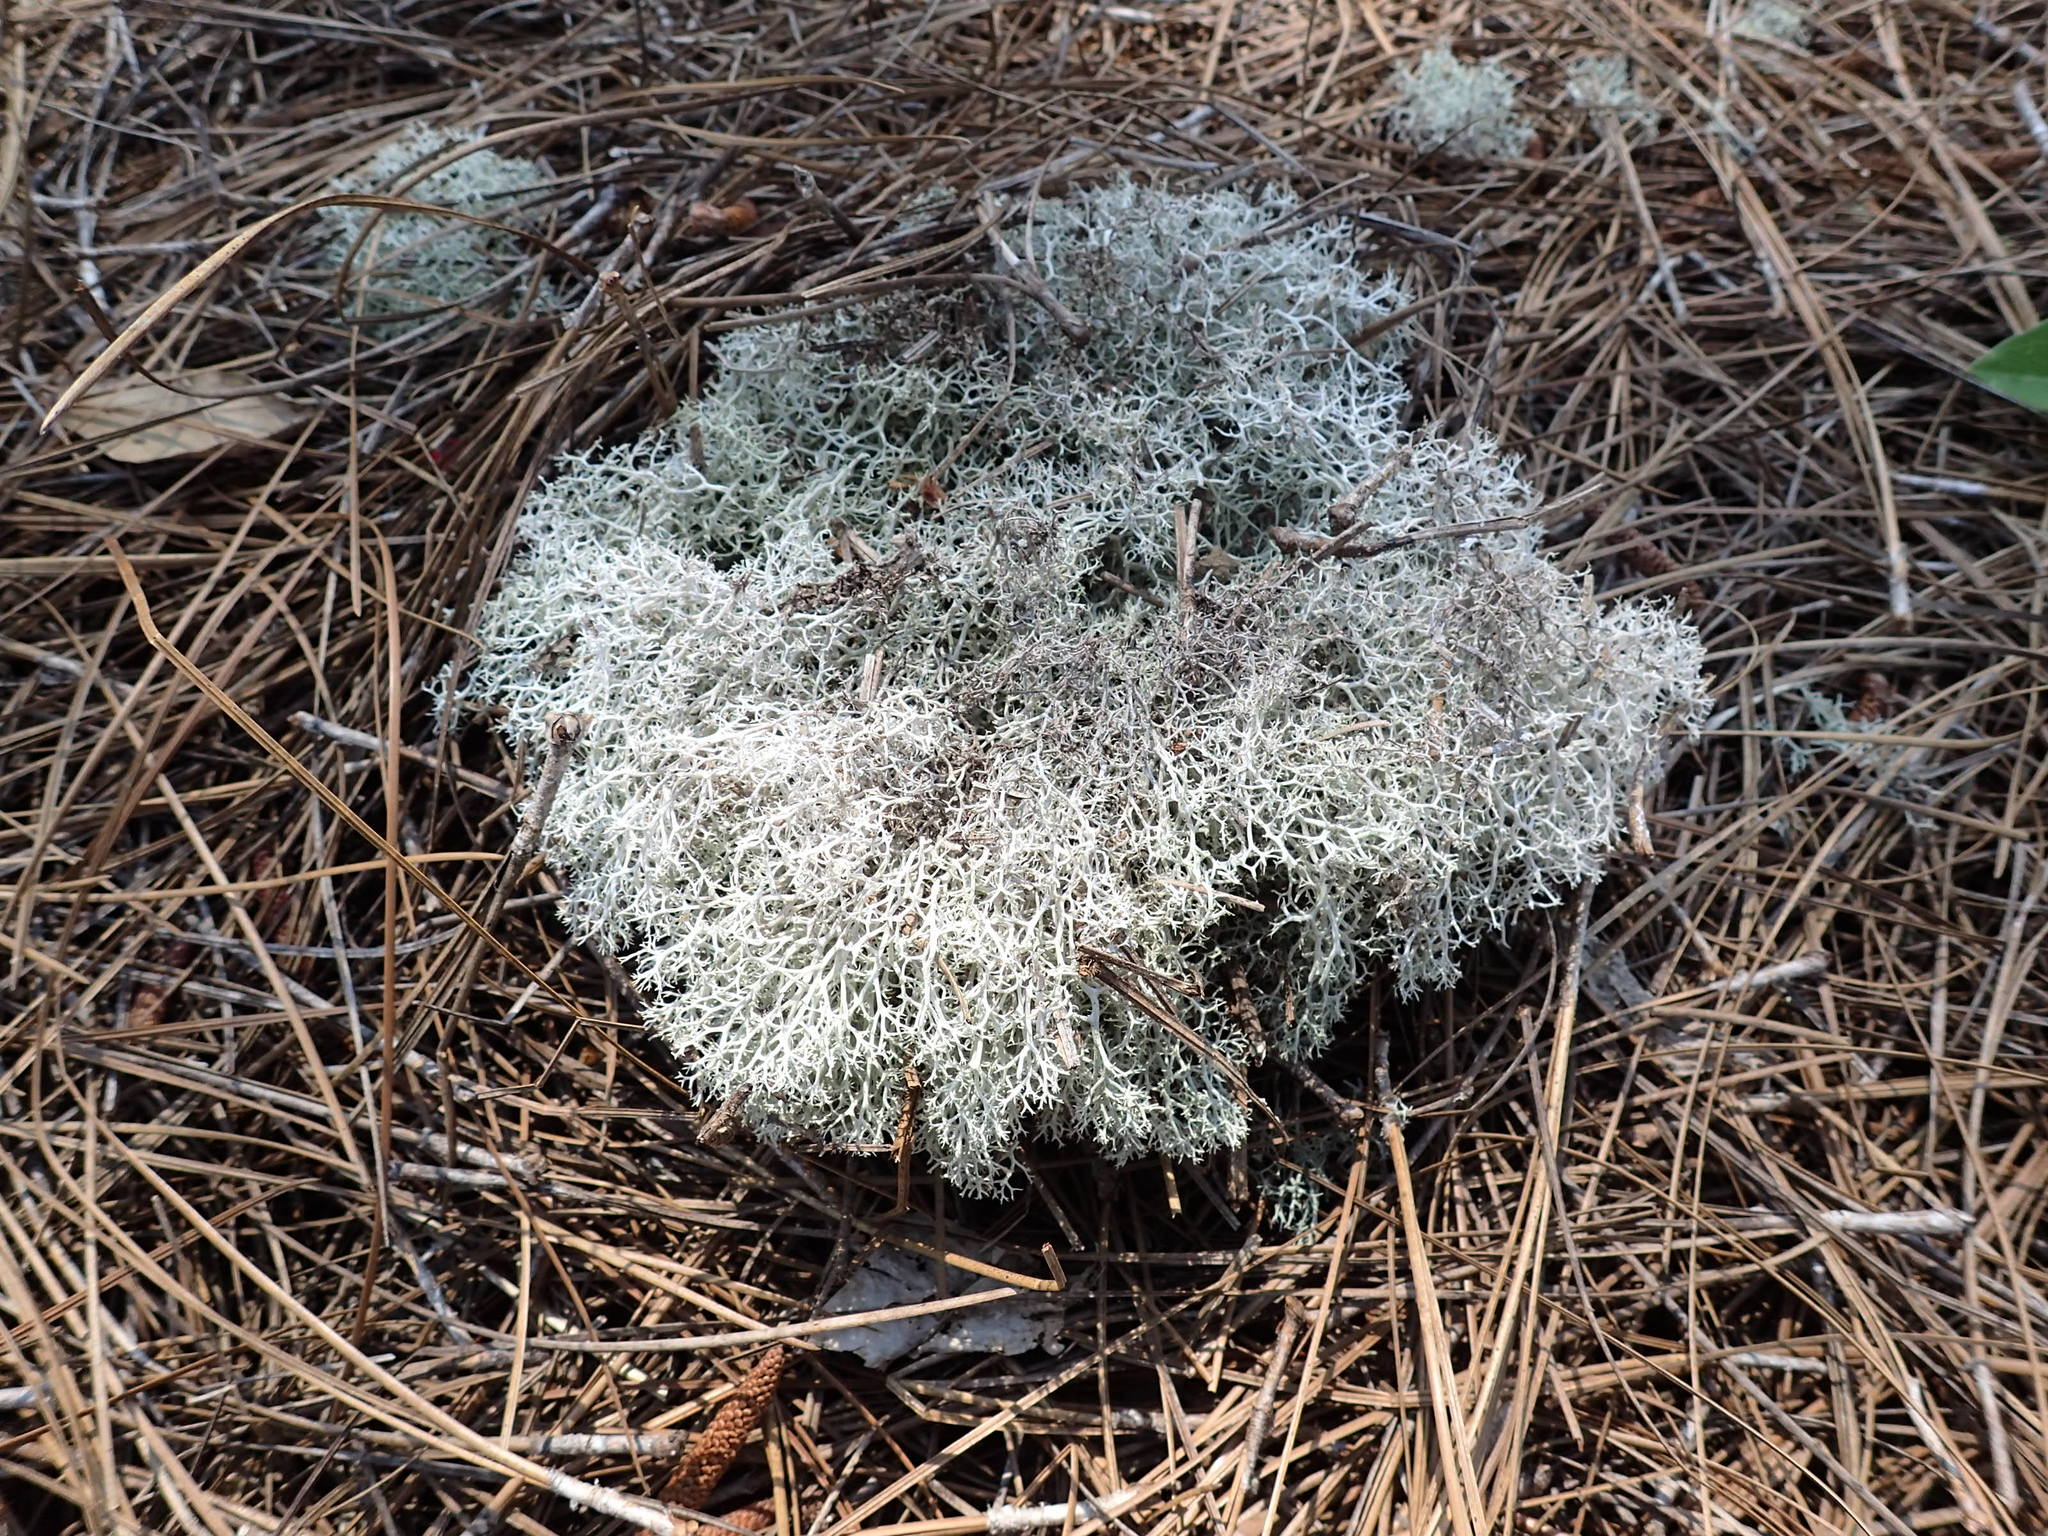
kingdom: Fungi
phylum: Ascomycota
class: Lecanoromycetes
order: Lecanorales
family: Cladoniaceae
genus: Cladonia
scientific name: Cladonia rangiferina
